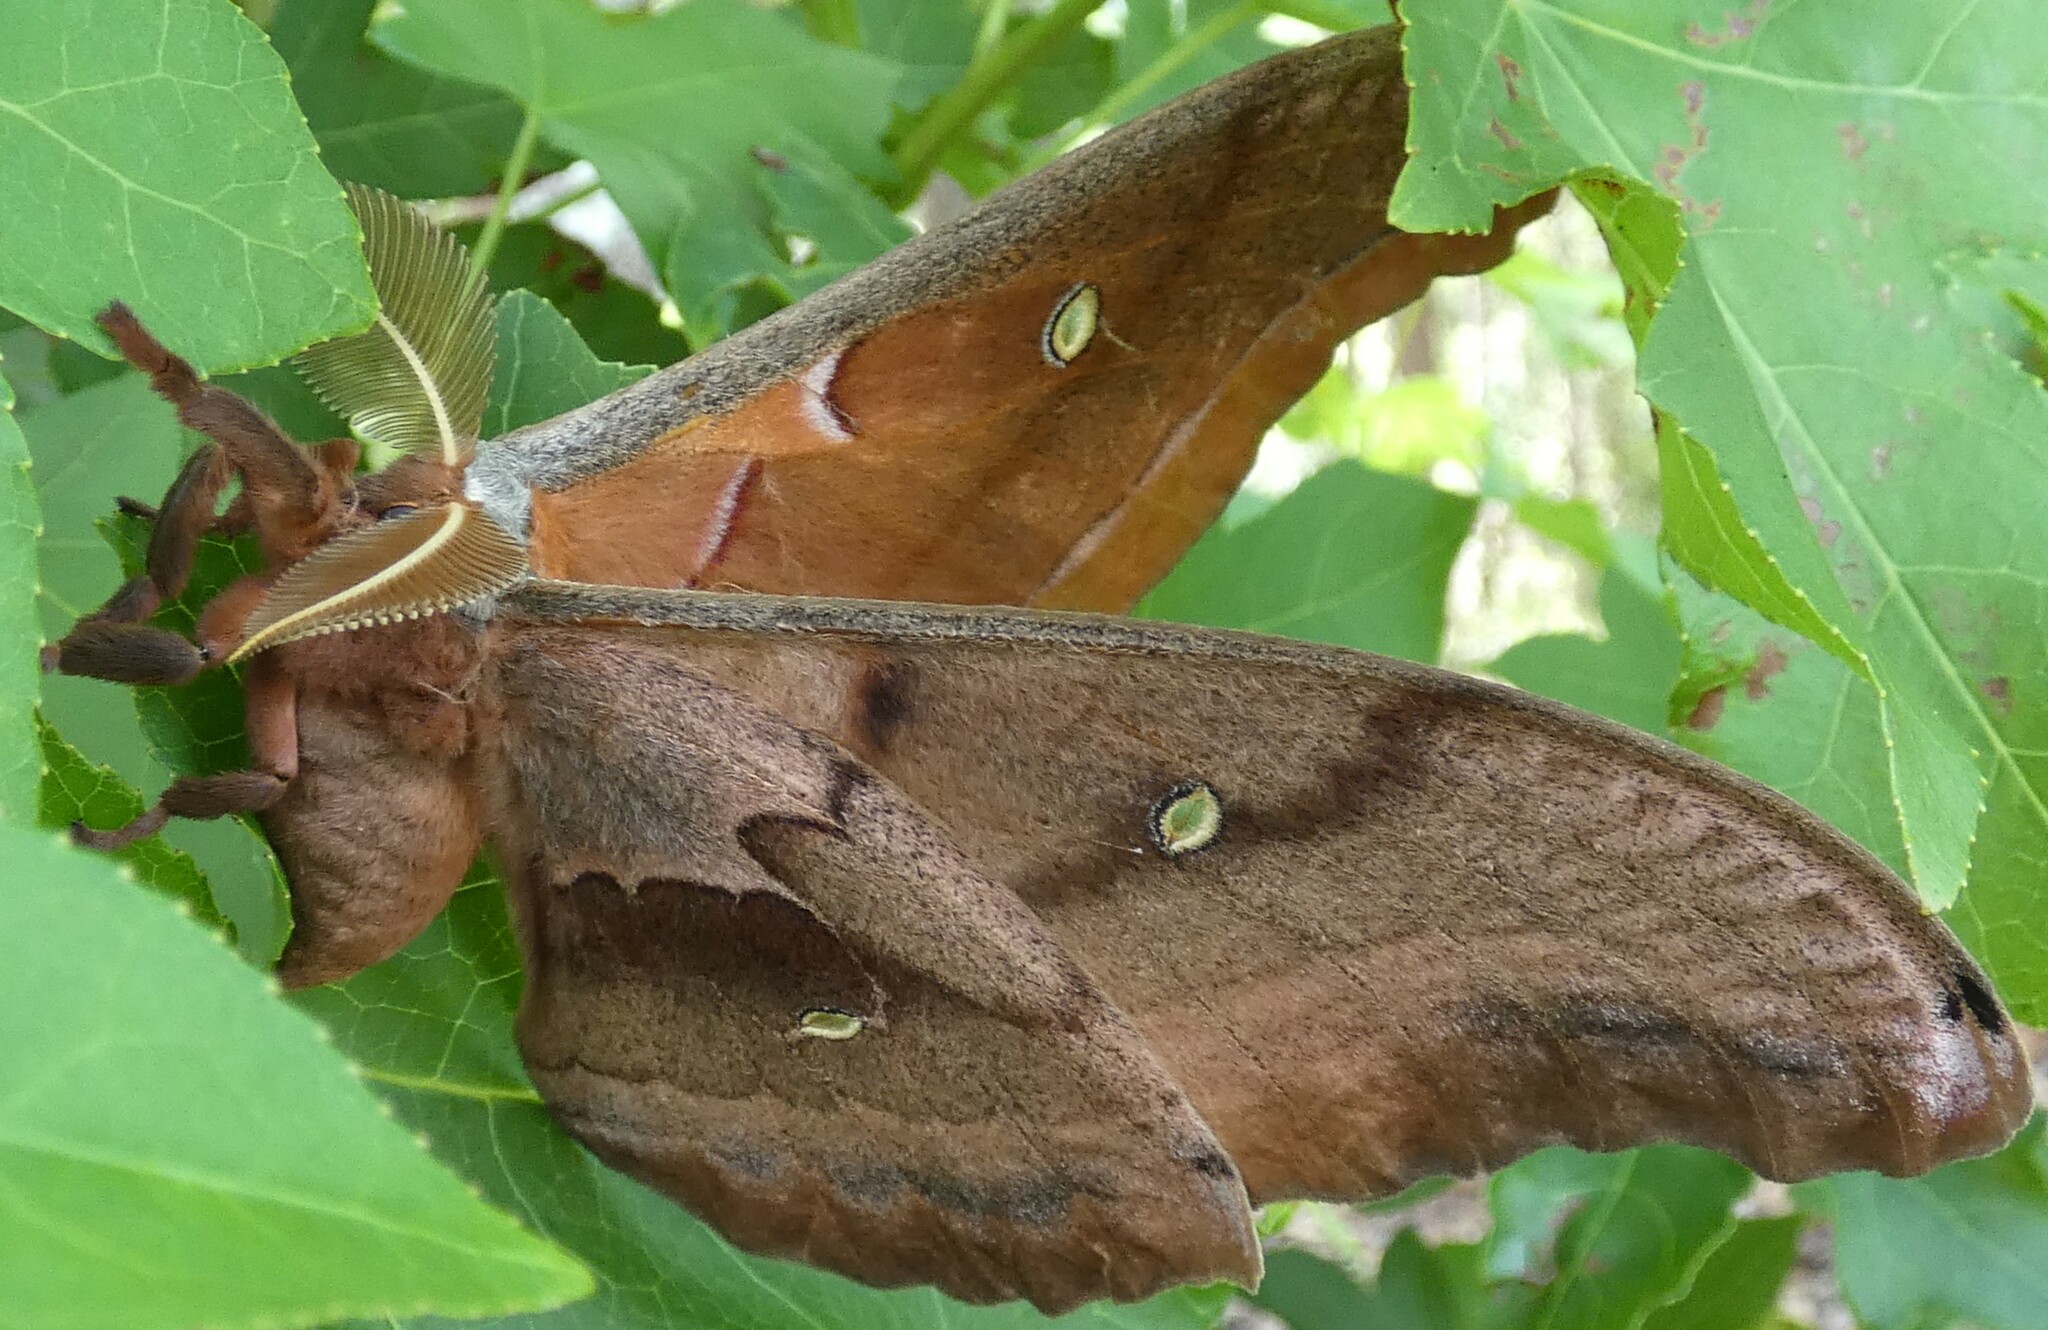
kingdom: Animalia
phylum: Arthropoda
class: Insecta
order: Lepidoptera
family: Saturniidae
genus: Antheraea
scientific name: Antheraea polyphemus
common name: Polyphemus moth
